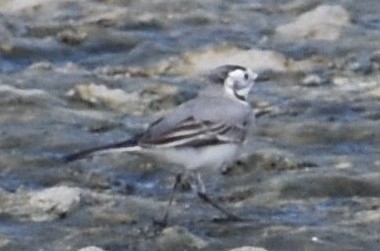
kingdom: Animalia
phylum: Chordata
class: Aves
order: Passeriformes
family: Motacillidae
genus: Motacilla
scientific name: Motacilla alba
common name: White wagtail
